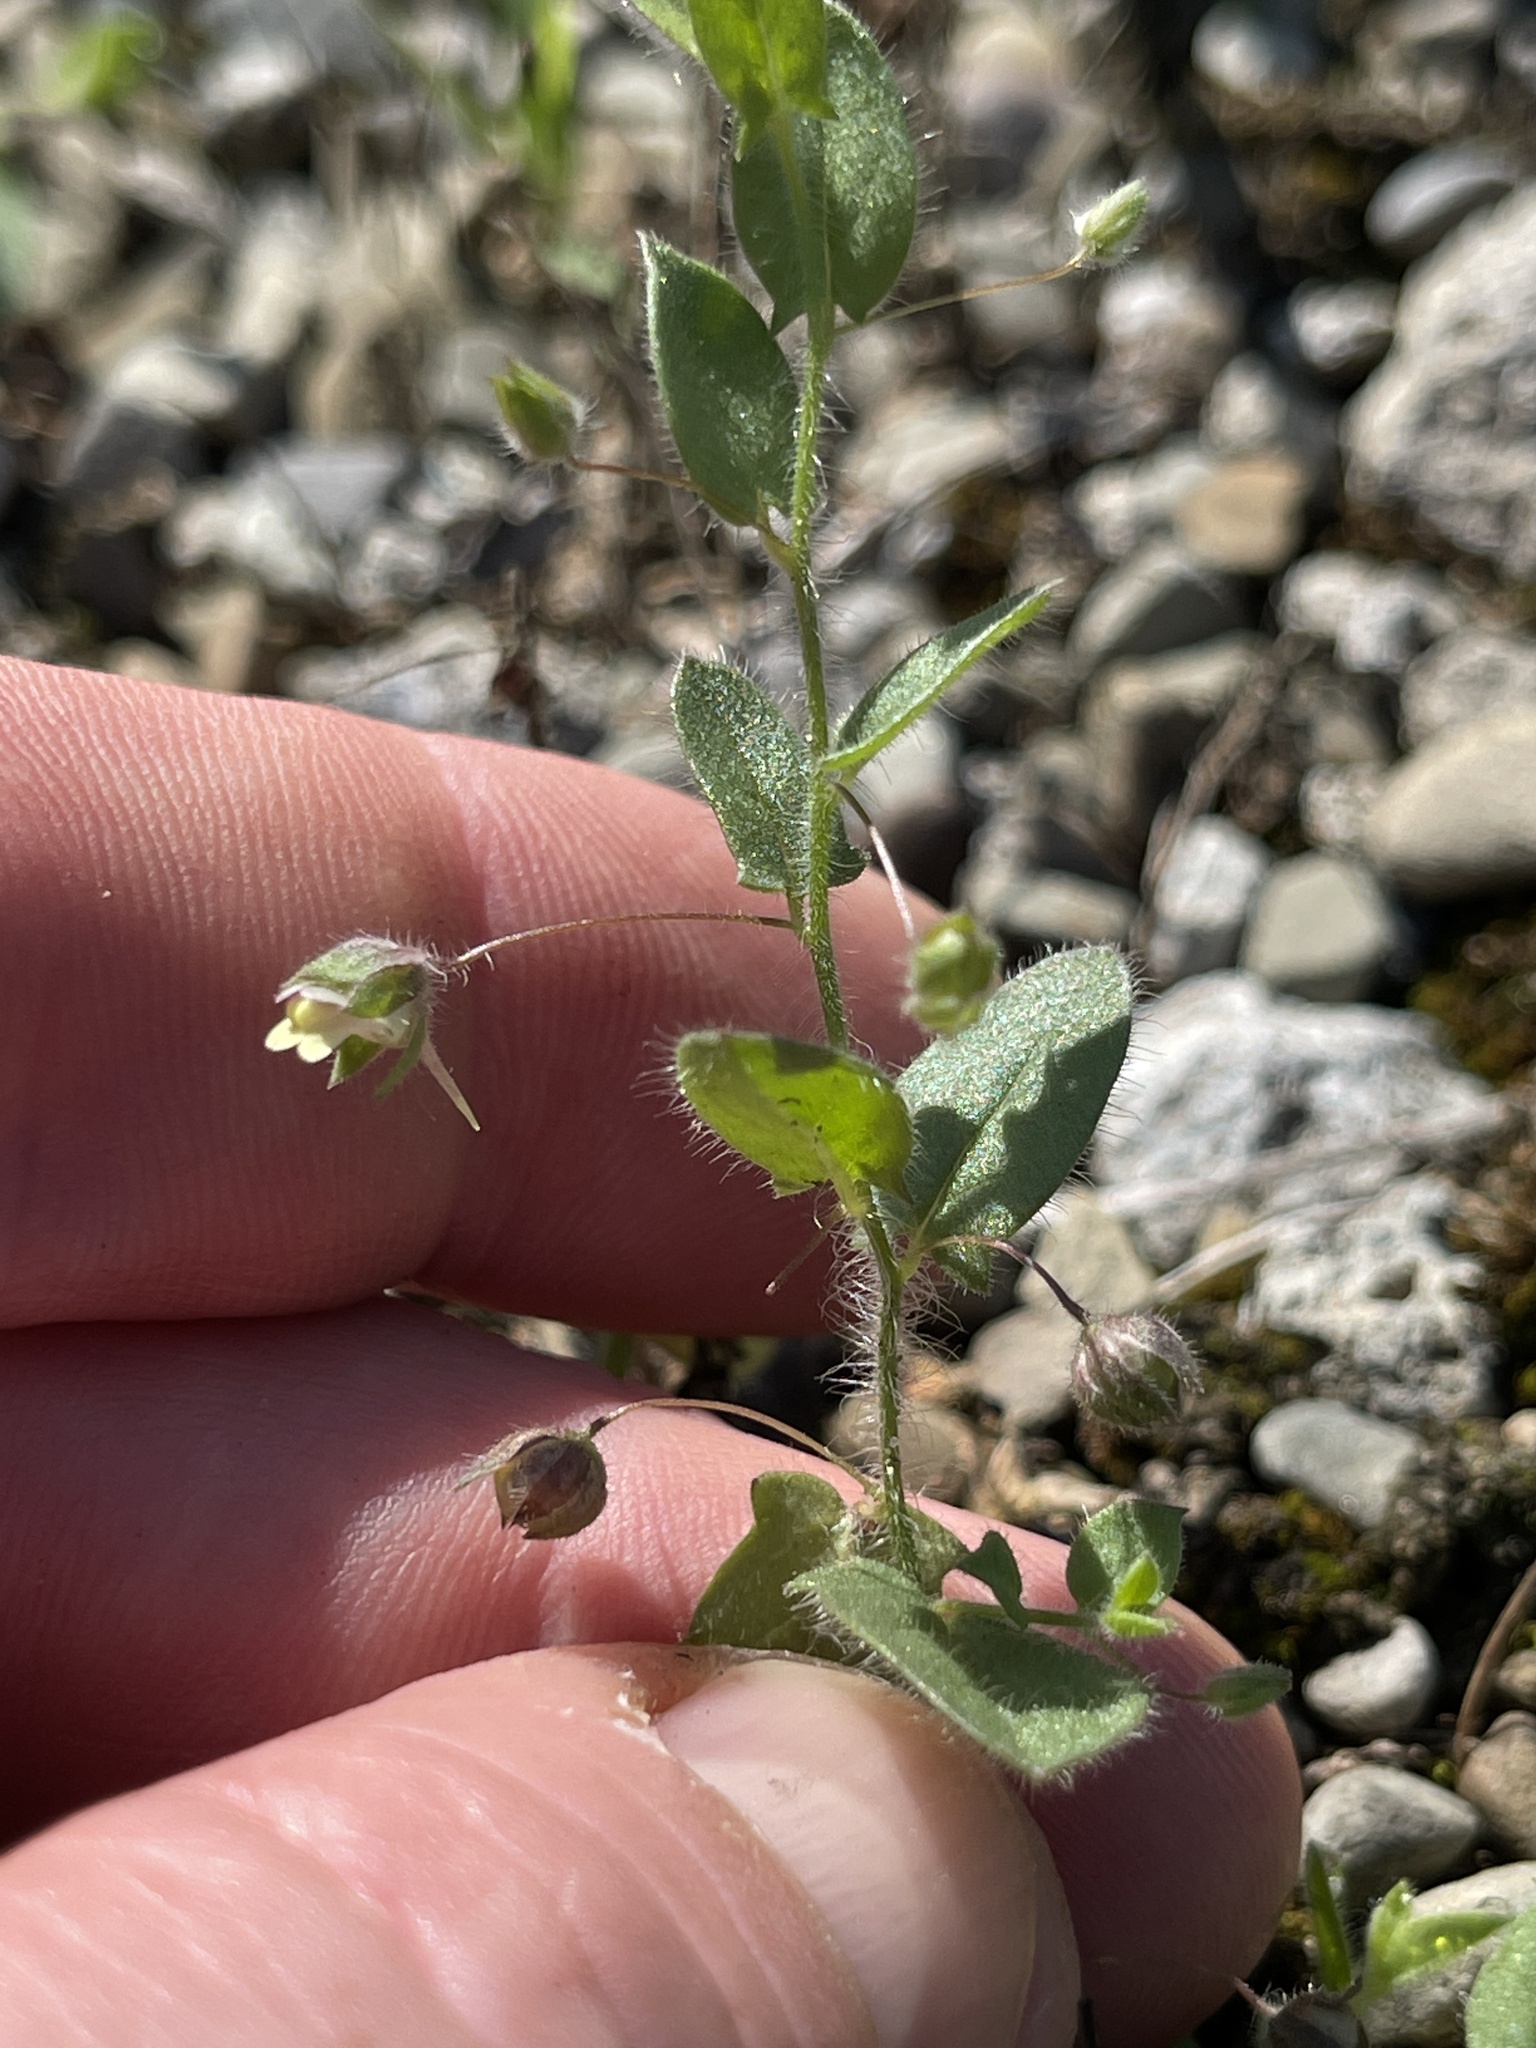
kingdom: Plantae
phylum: Tracheophyta
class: Magnoliopsida
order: Lamiales
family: Plantaginaceae
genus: Kickxia
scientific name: Kickxia elatine
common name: Sharp-leaved fluellen
